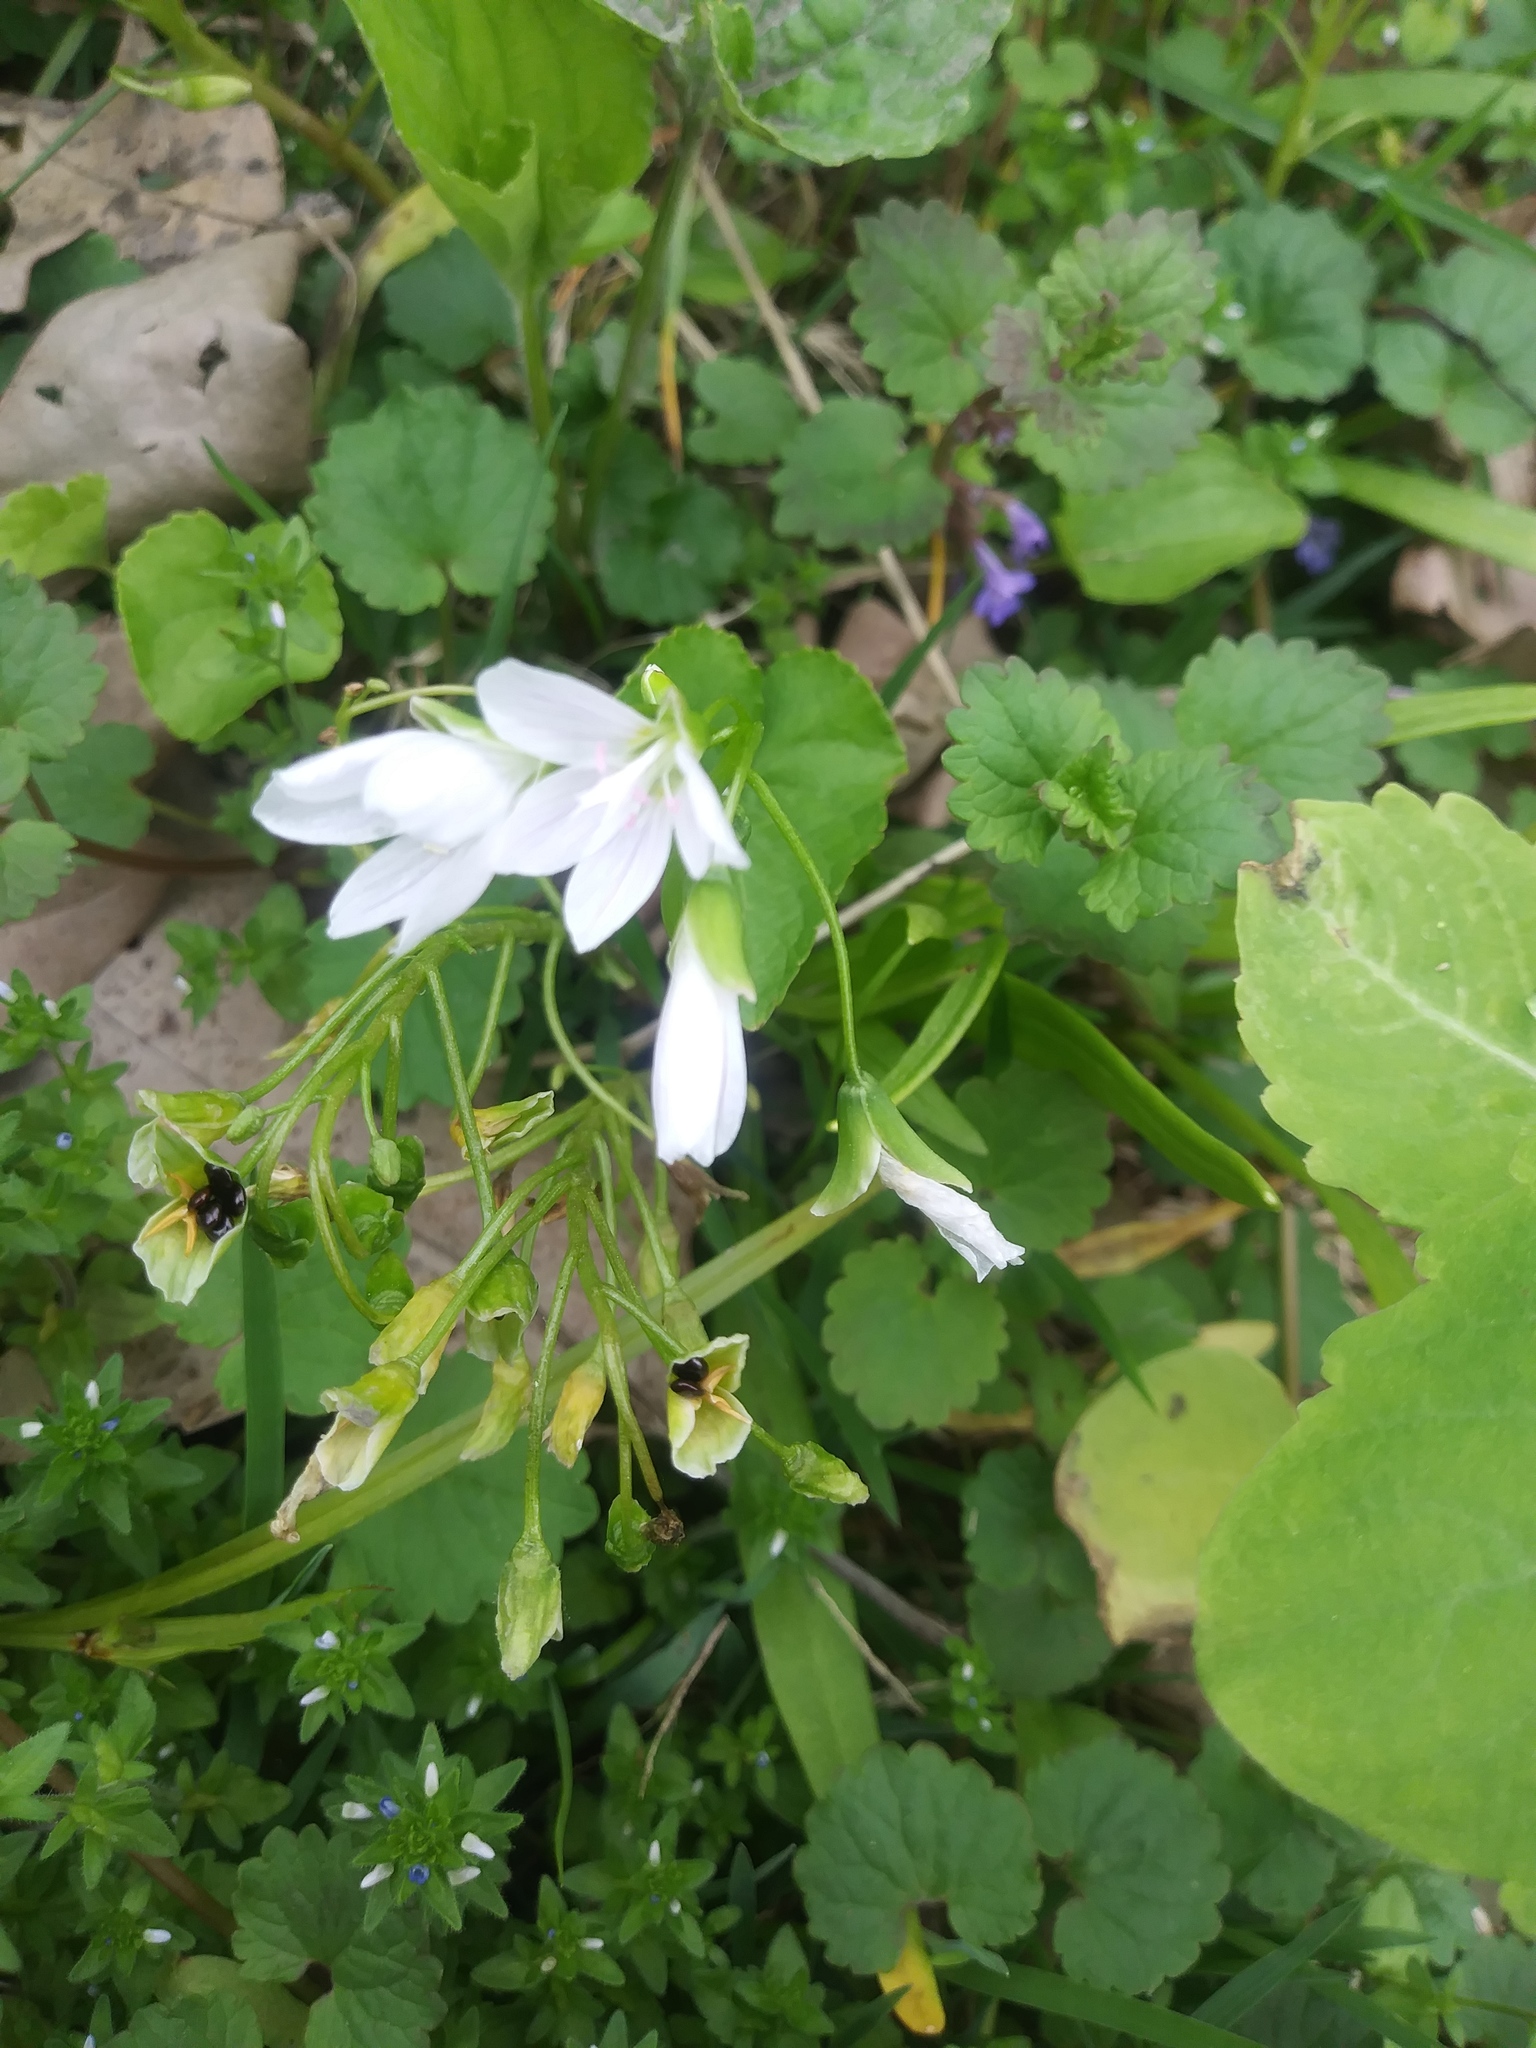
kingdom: Plantae
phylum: Tracheophyta
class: Magnoliopsida
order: Caryophyllales
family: Montiaceae
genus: Claytonia
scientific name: Claytonia virginica
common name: Virginia springbeauty
